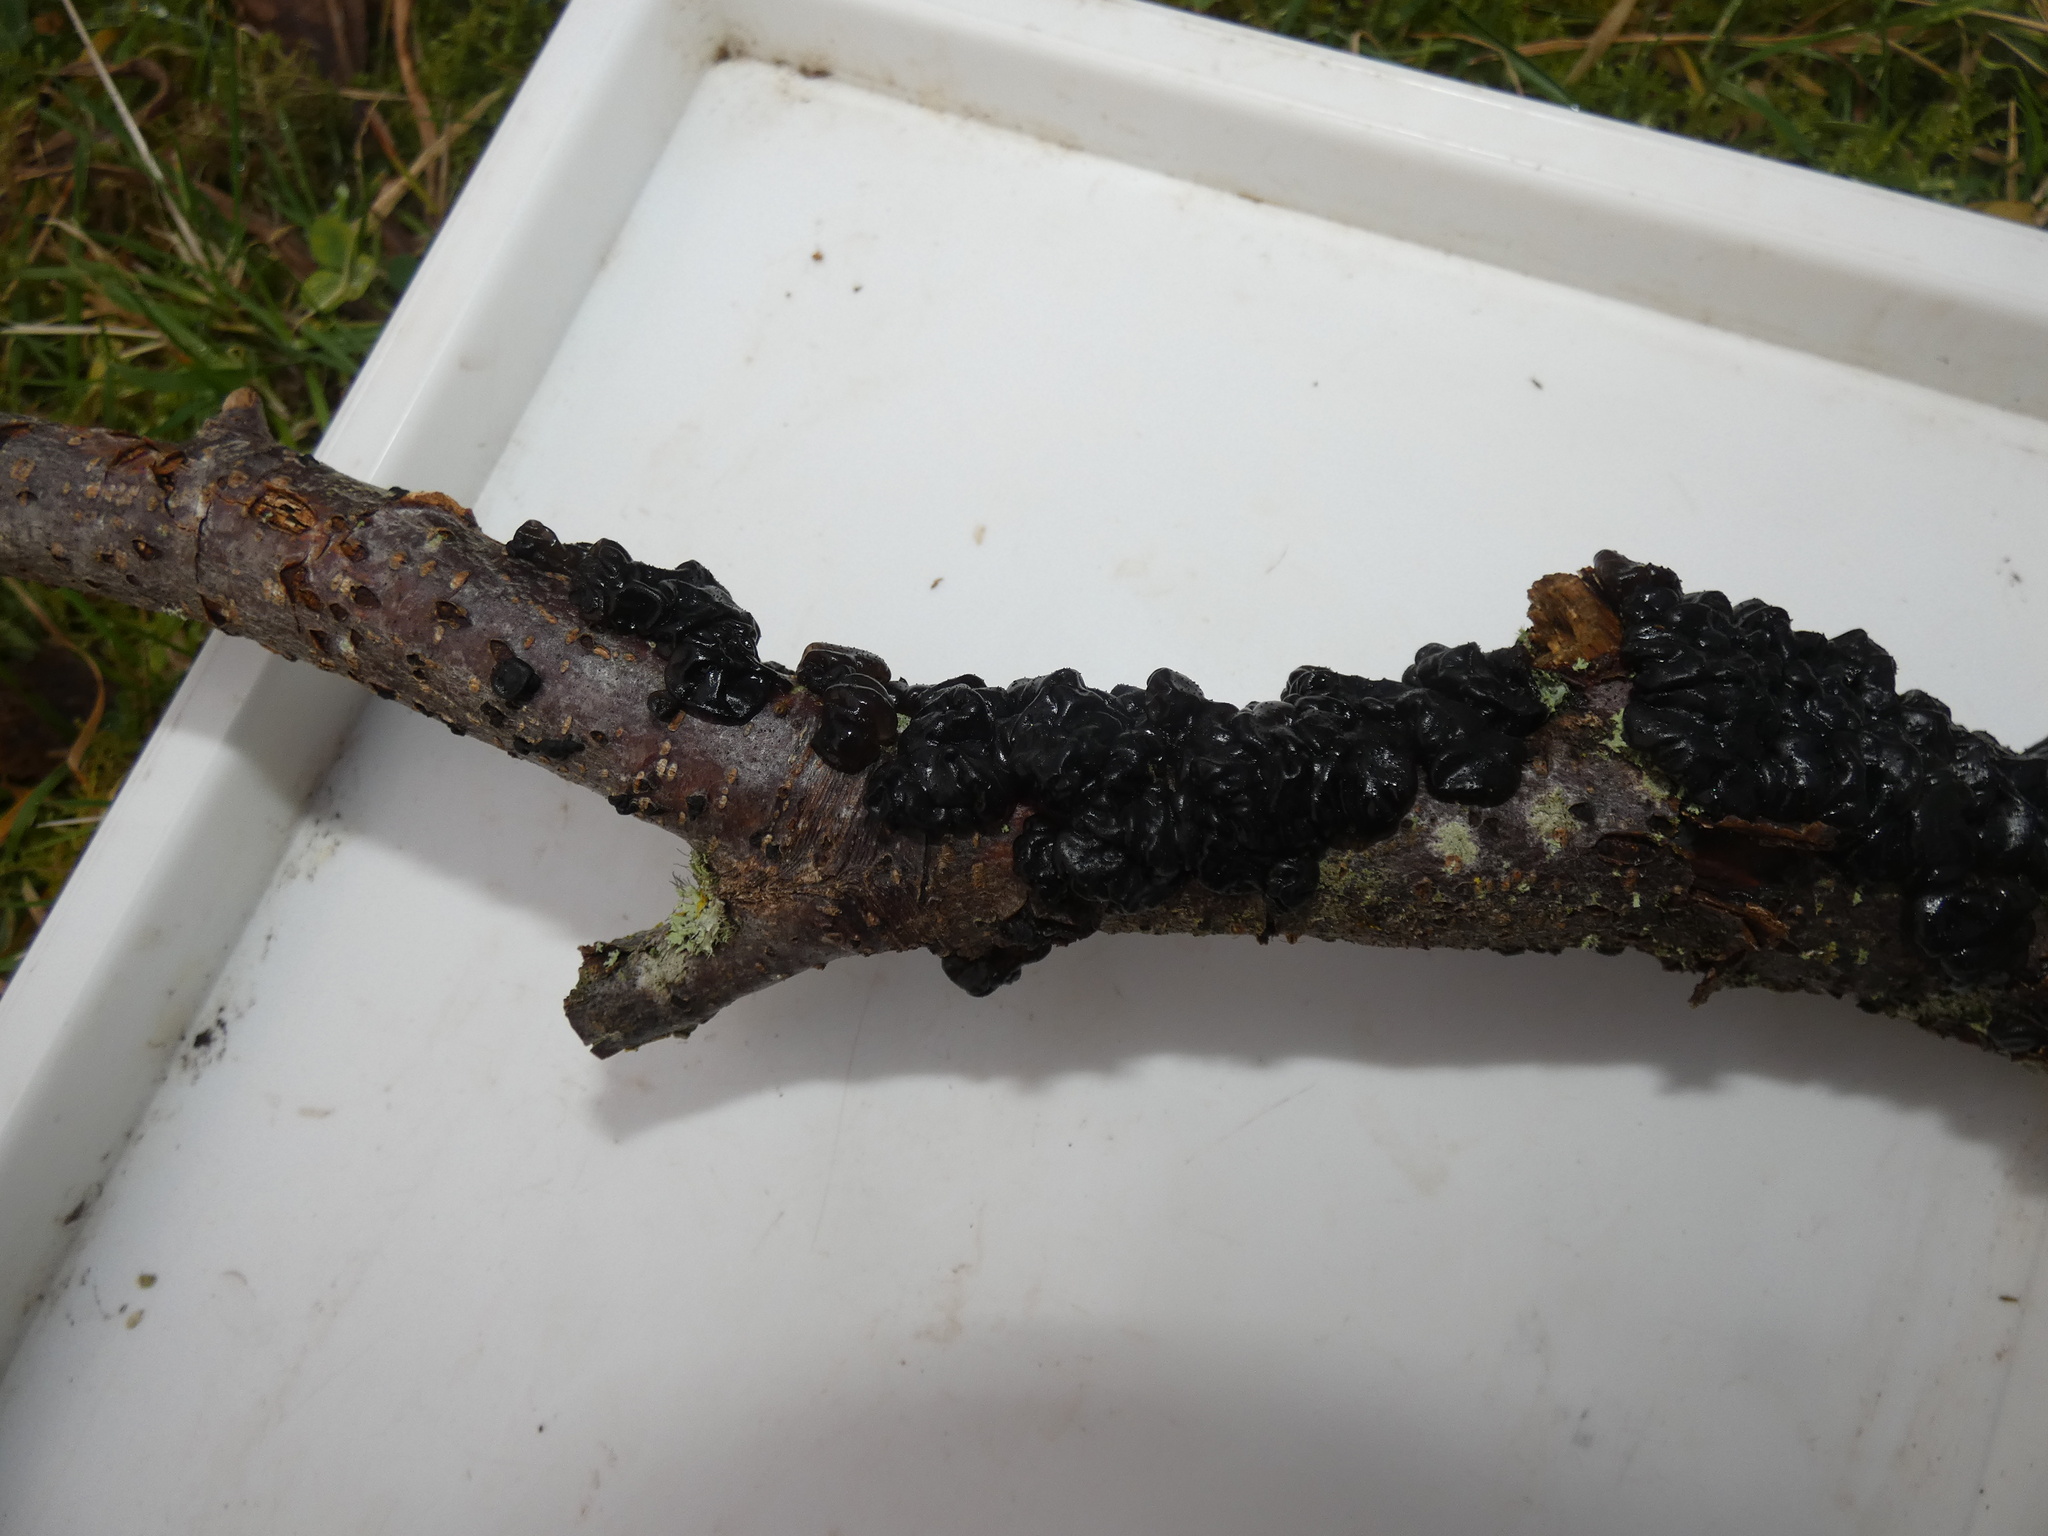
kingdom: Fungi
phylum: Basidiomycota
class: Agaricomycetes
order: Auriculariales
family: Auriculariaceae
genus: Exidia
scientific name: Exidia glandulosa
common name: Witches' butter
